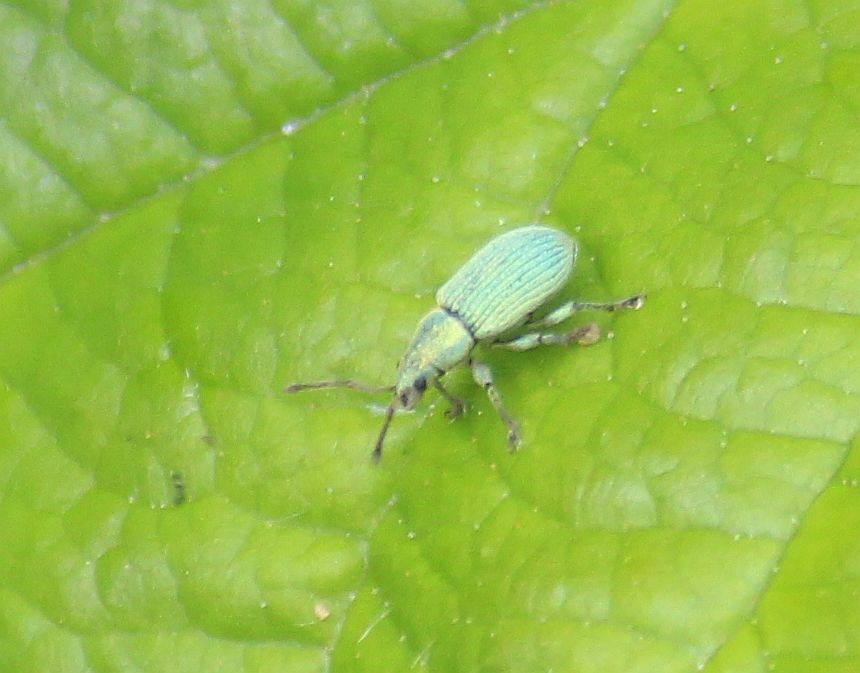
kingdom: Animalia
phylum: Arthropoda
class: Insecta
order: Coleoptera
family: Curculionidae
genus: Phyllobius
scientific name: Phyllobius roboretanus
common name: Small green nettle weevil
